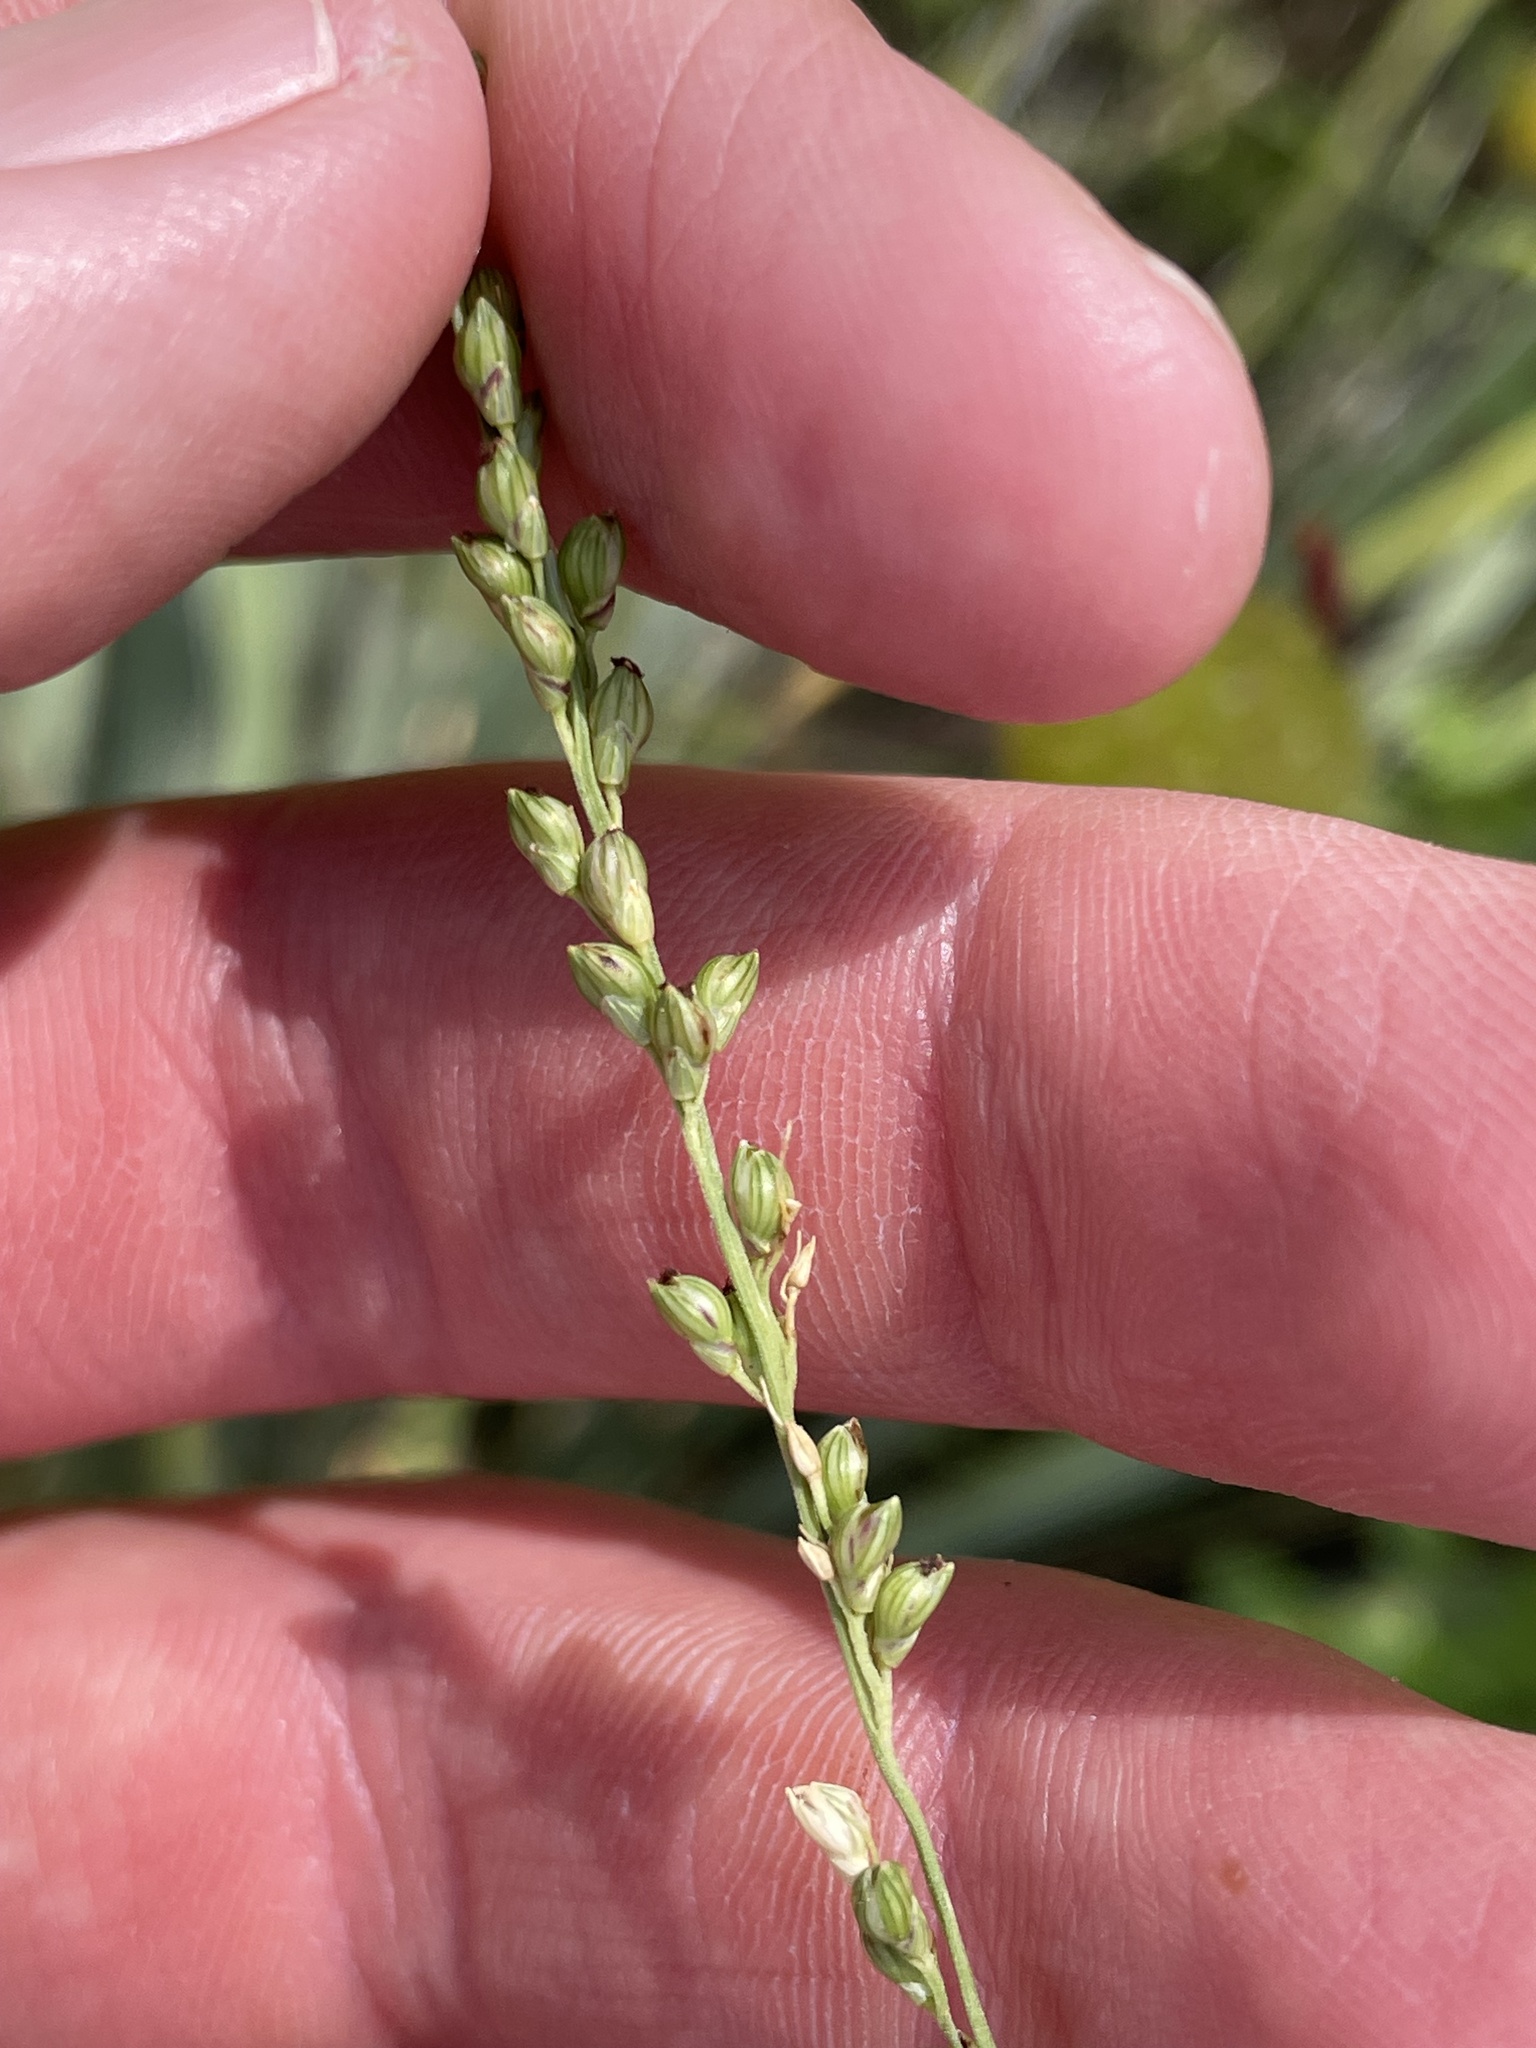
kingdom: Plantae
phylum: Tracheophyta
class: Liliopsida
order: Poales
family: Poaceae
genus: Setaria
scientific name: Setaria reverchonii
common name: Reverchon's bristle grass
